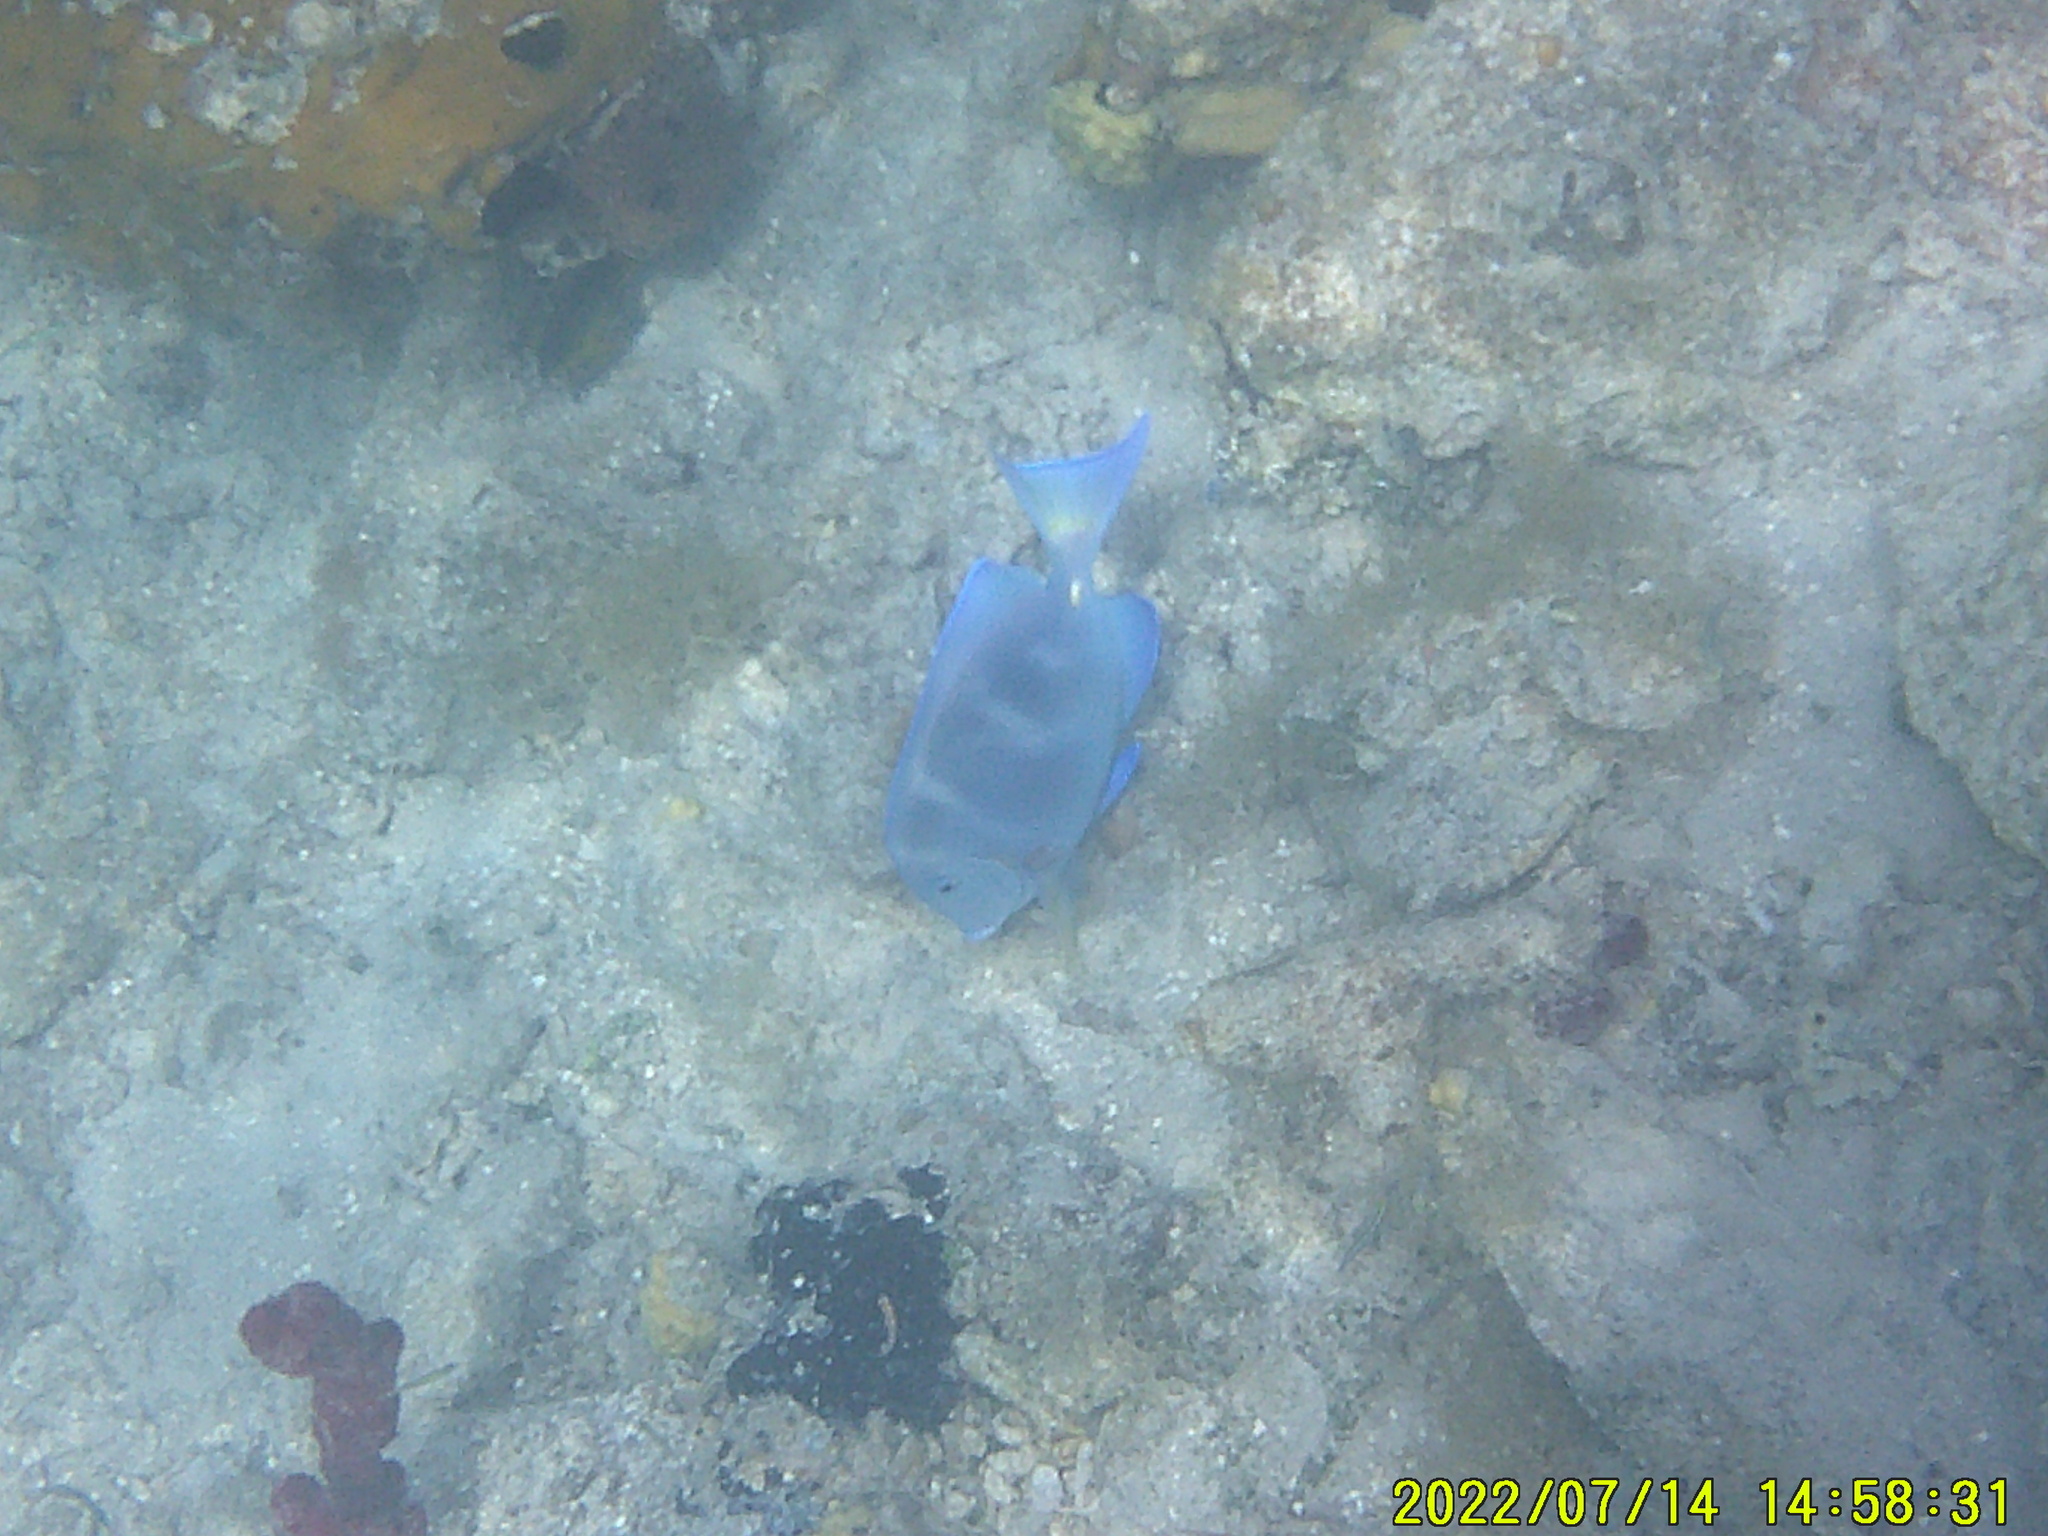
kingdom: Animalia
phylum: Chordata
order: Perciformes
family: Acanthuridae
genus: Acanthurus
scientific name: Acanthurus coeruleus
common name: Blue tang
